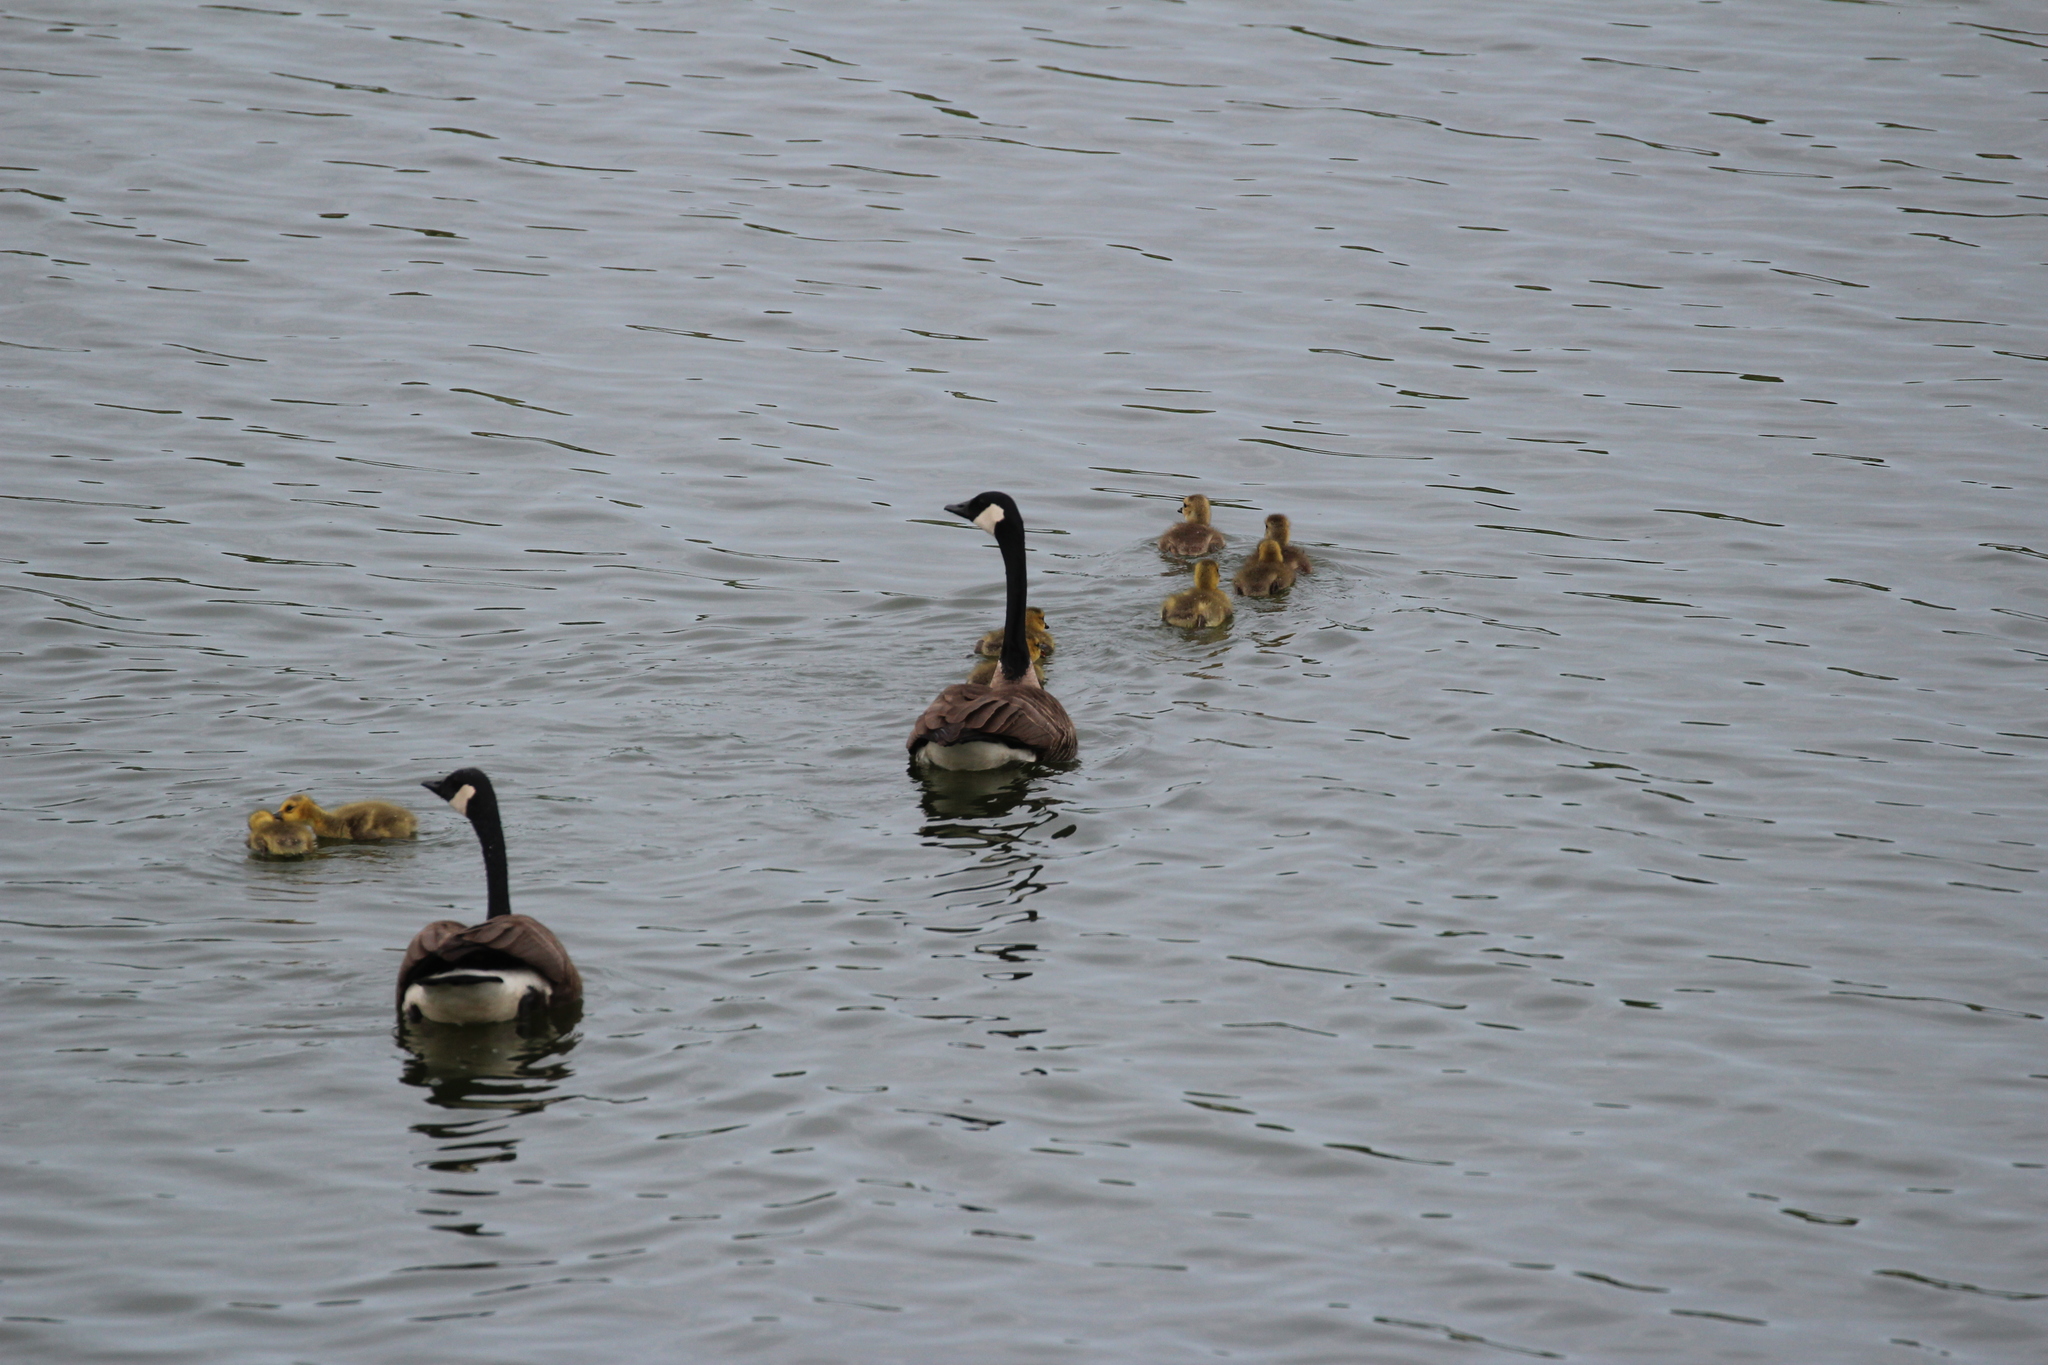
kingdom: Animalia
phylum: Chordata
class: Aves
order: Anseriformes
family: Anatidae
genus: Branta
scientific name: Branta canadensis
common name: Canada goose
